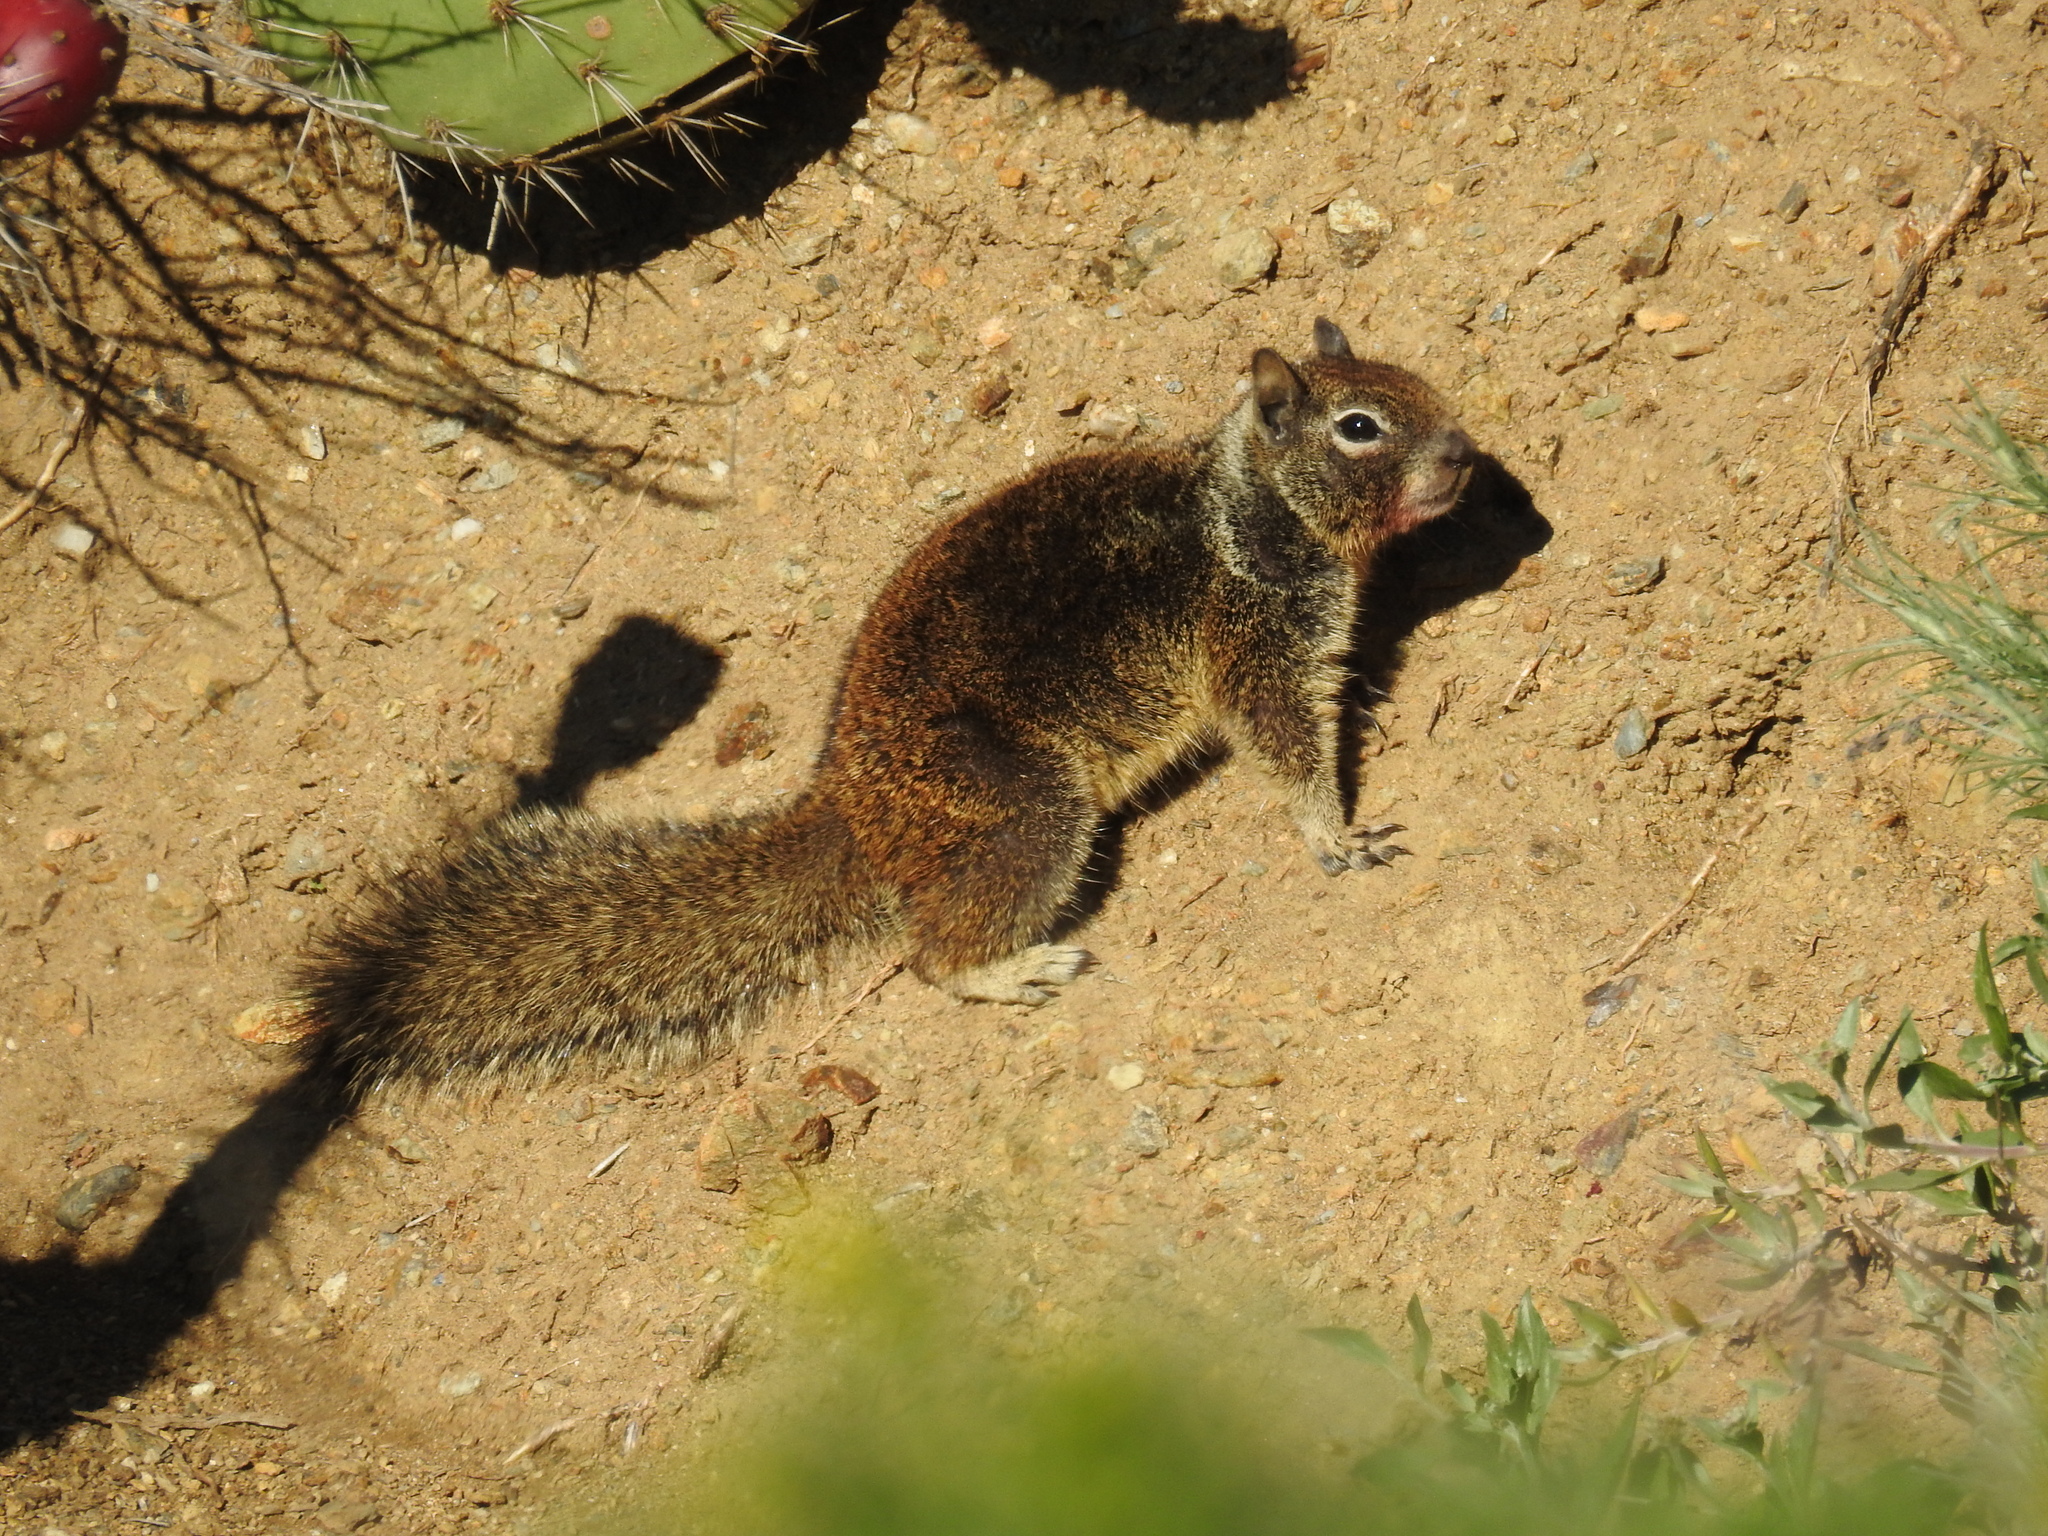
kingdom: Animalia
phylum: Chordata
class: Mammalia
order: Rodentia
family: Sciuridae
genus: Otospermophilus
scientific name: Otospermophilus beecheyi
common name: California ground squirrel
